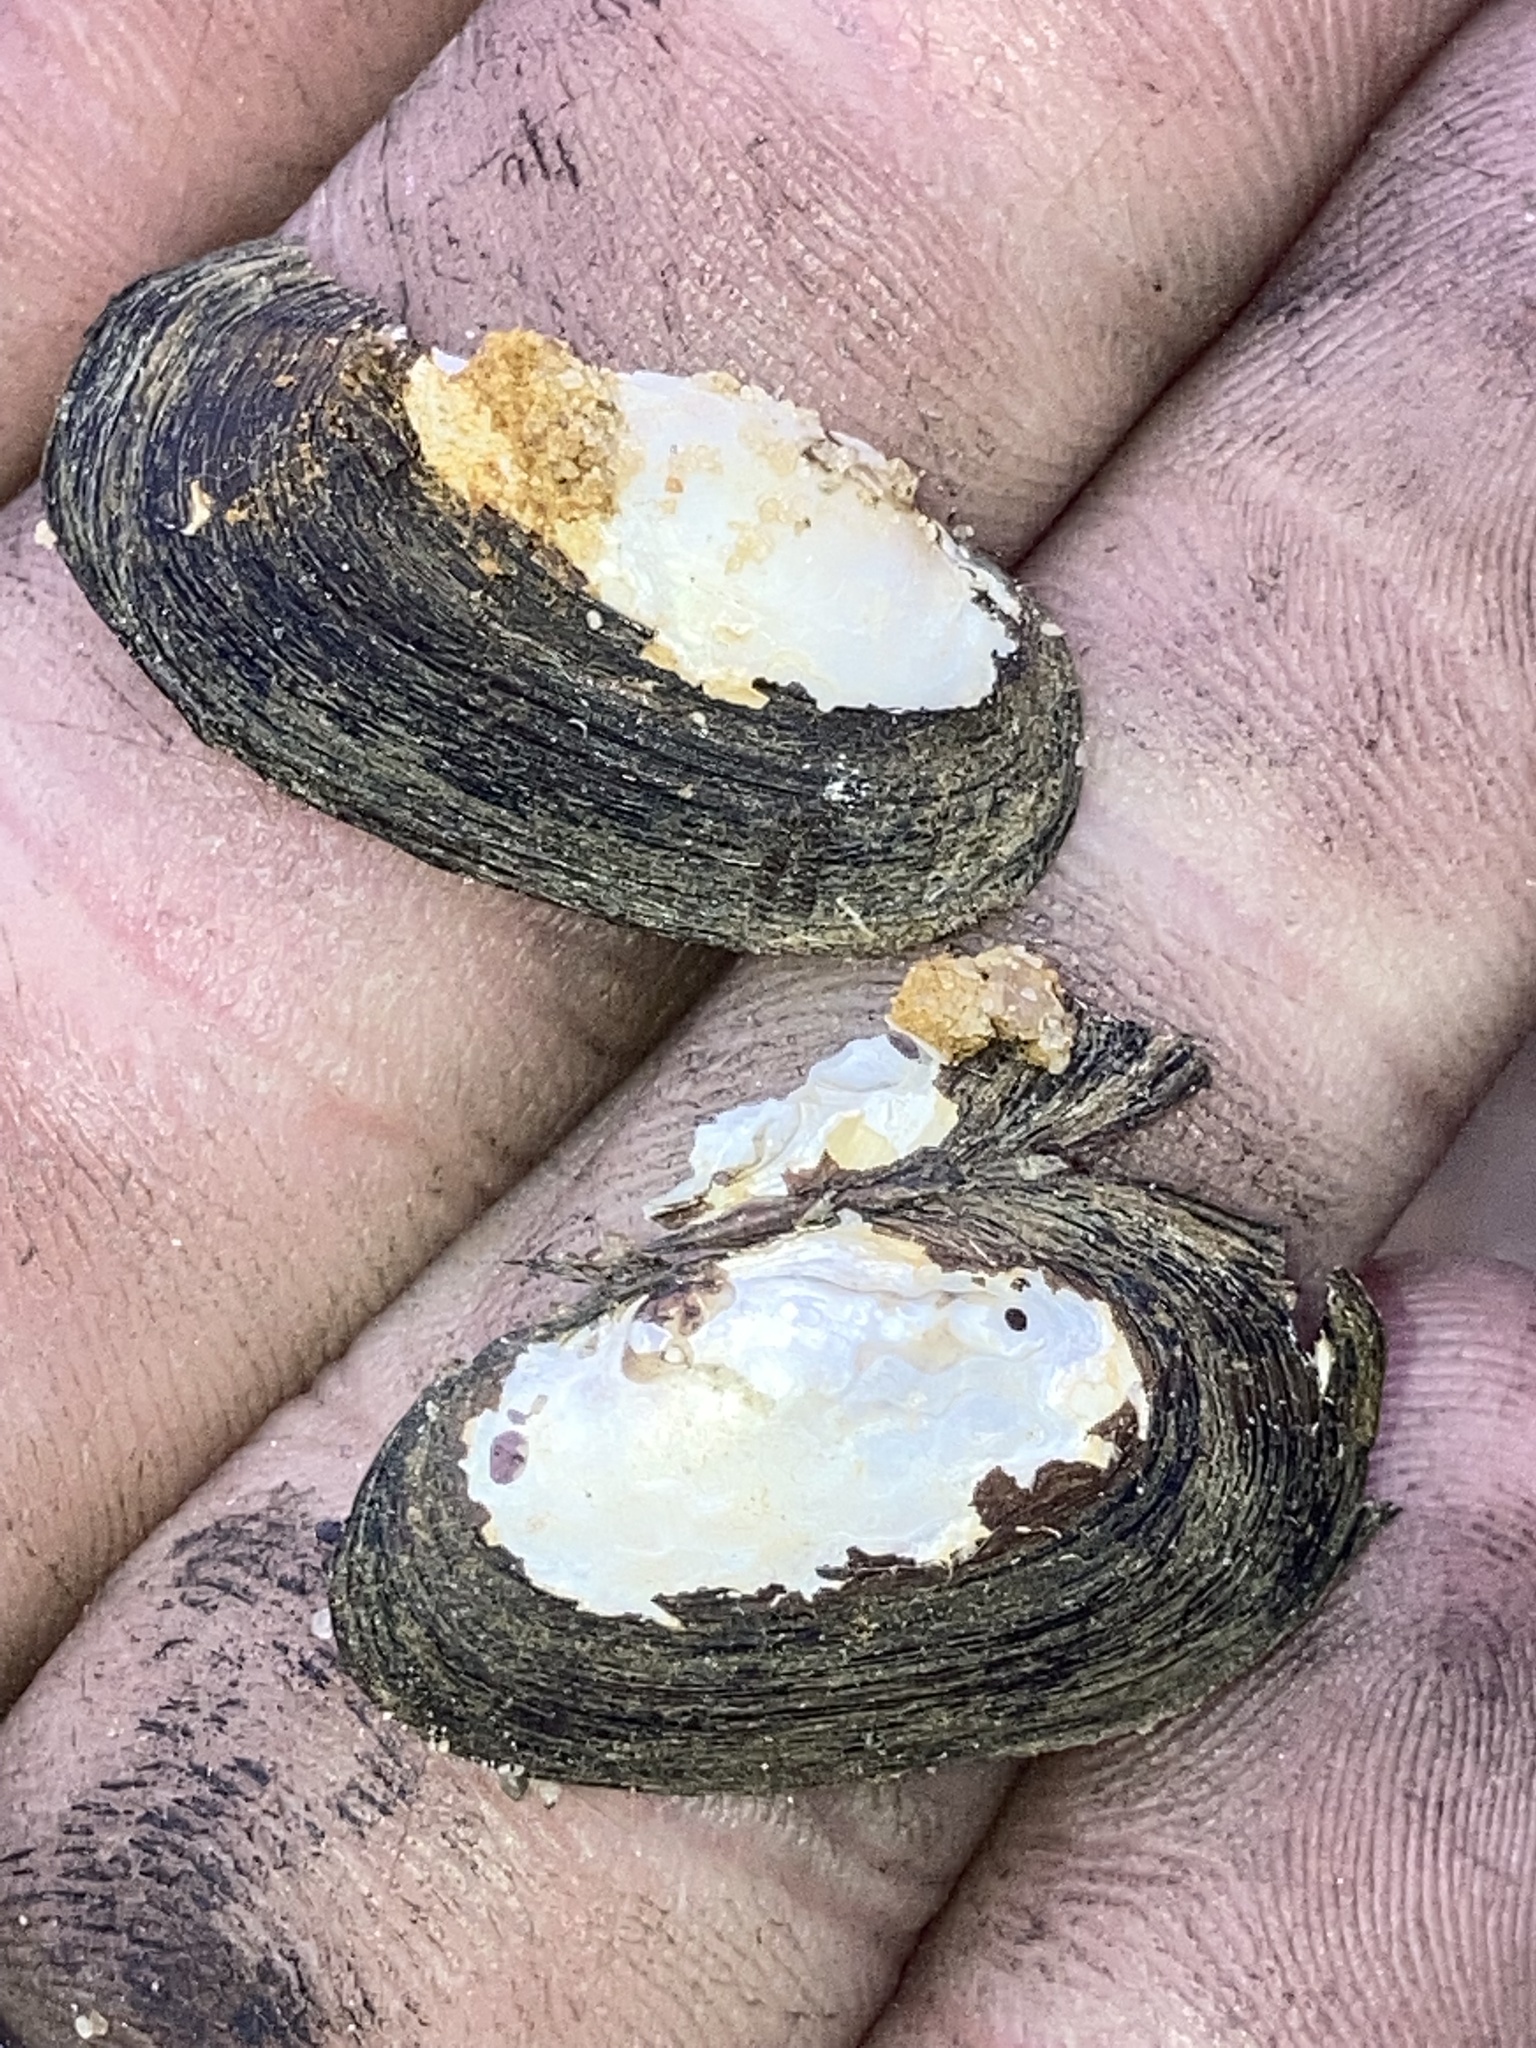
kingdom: Animalia
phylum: Mollusca
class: Bivalvia
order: Unionida
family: Unionidae
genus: Toxolasma
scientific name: Toxolasma parvum
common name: Lilliput
